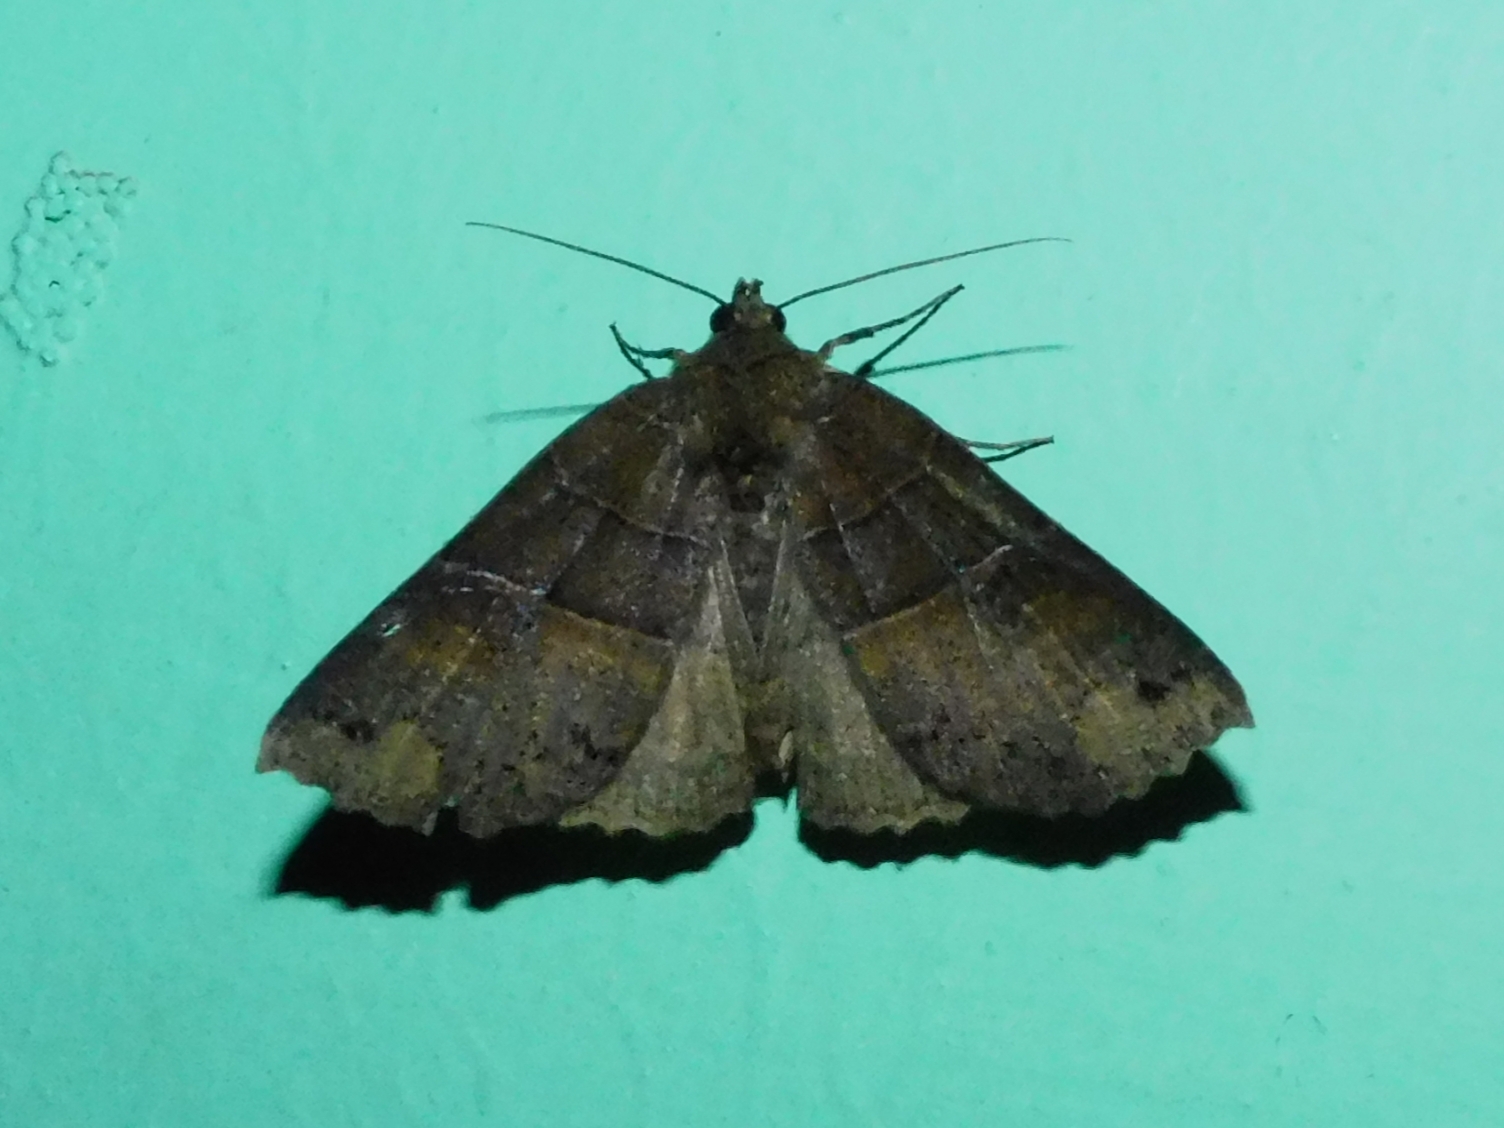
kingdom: Animalia
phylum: Arthropoda
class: Insecta
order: Lepidoptera
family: Erebidae
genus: Sypnoides
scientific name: Sypnoides
